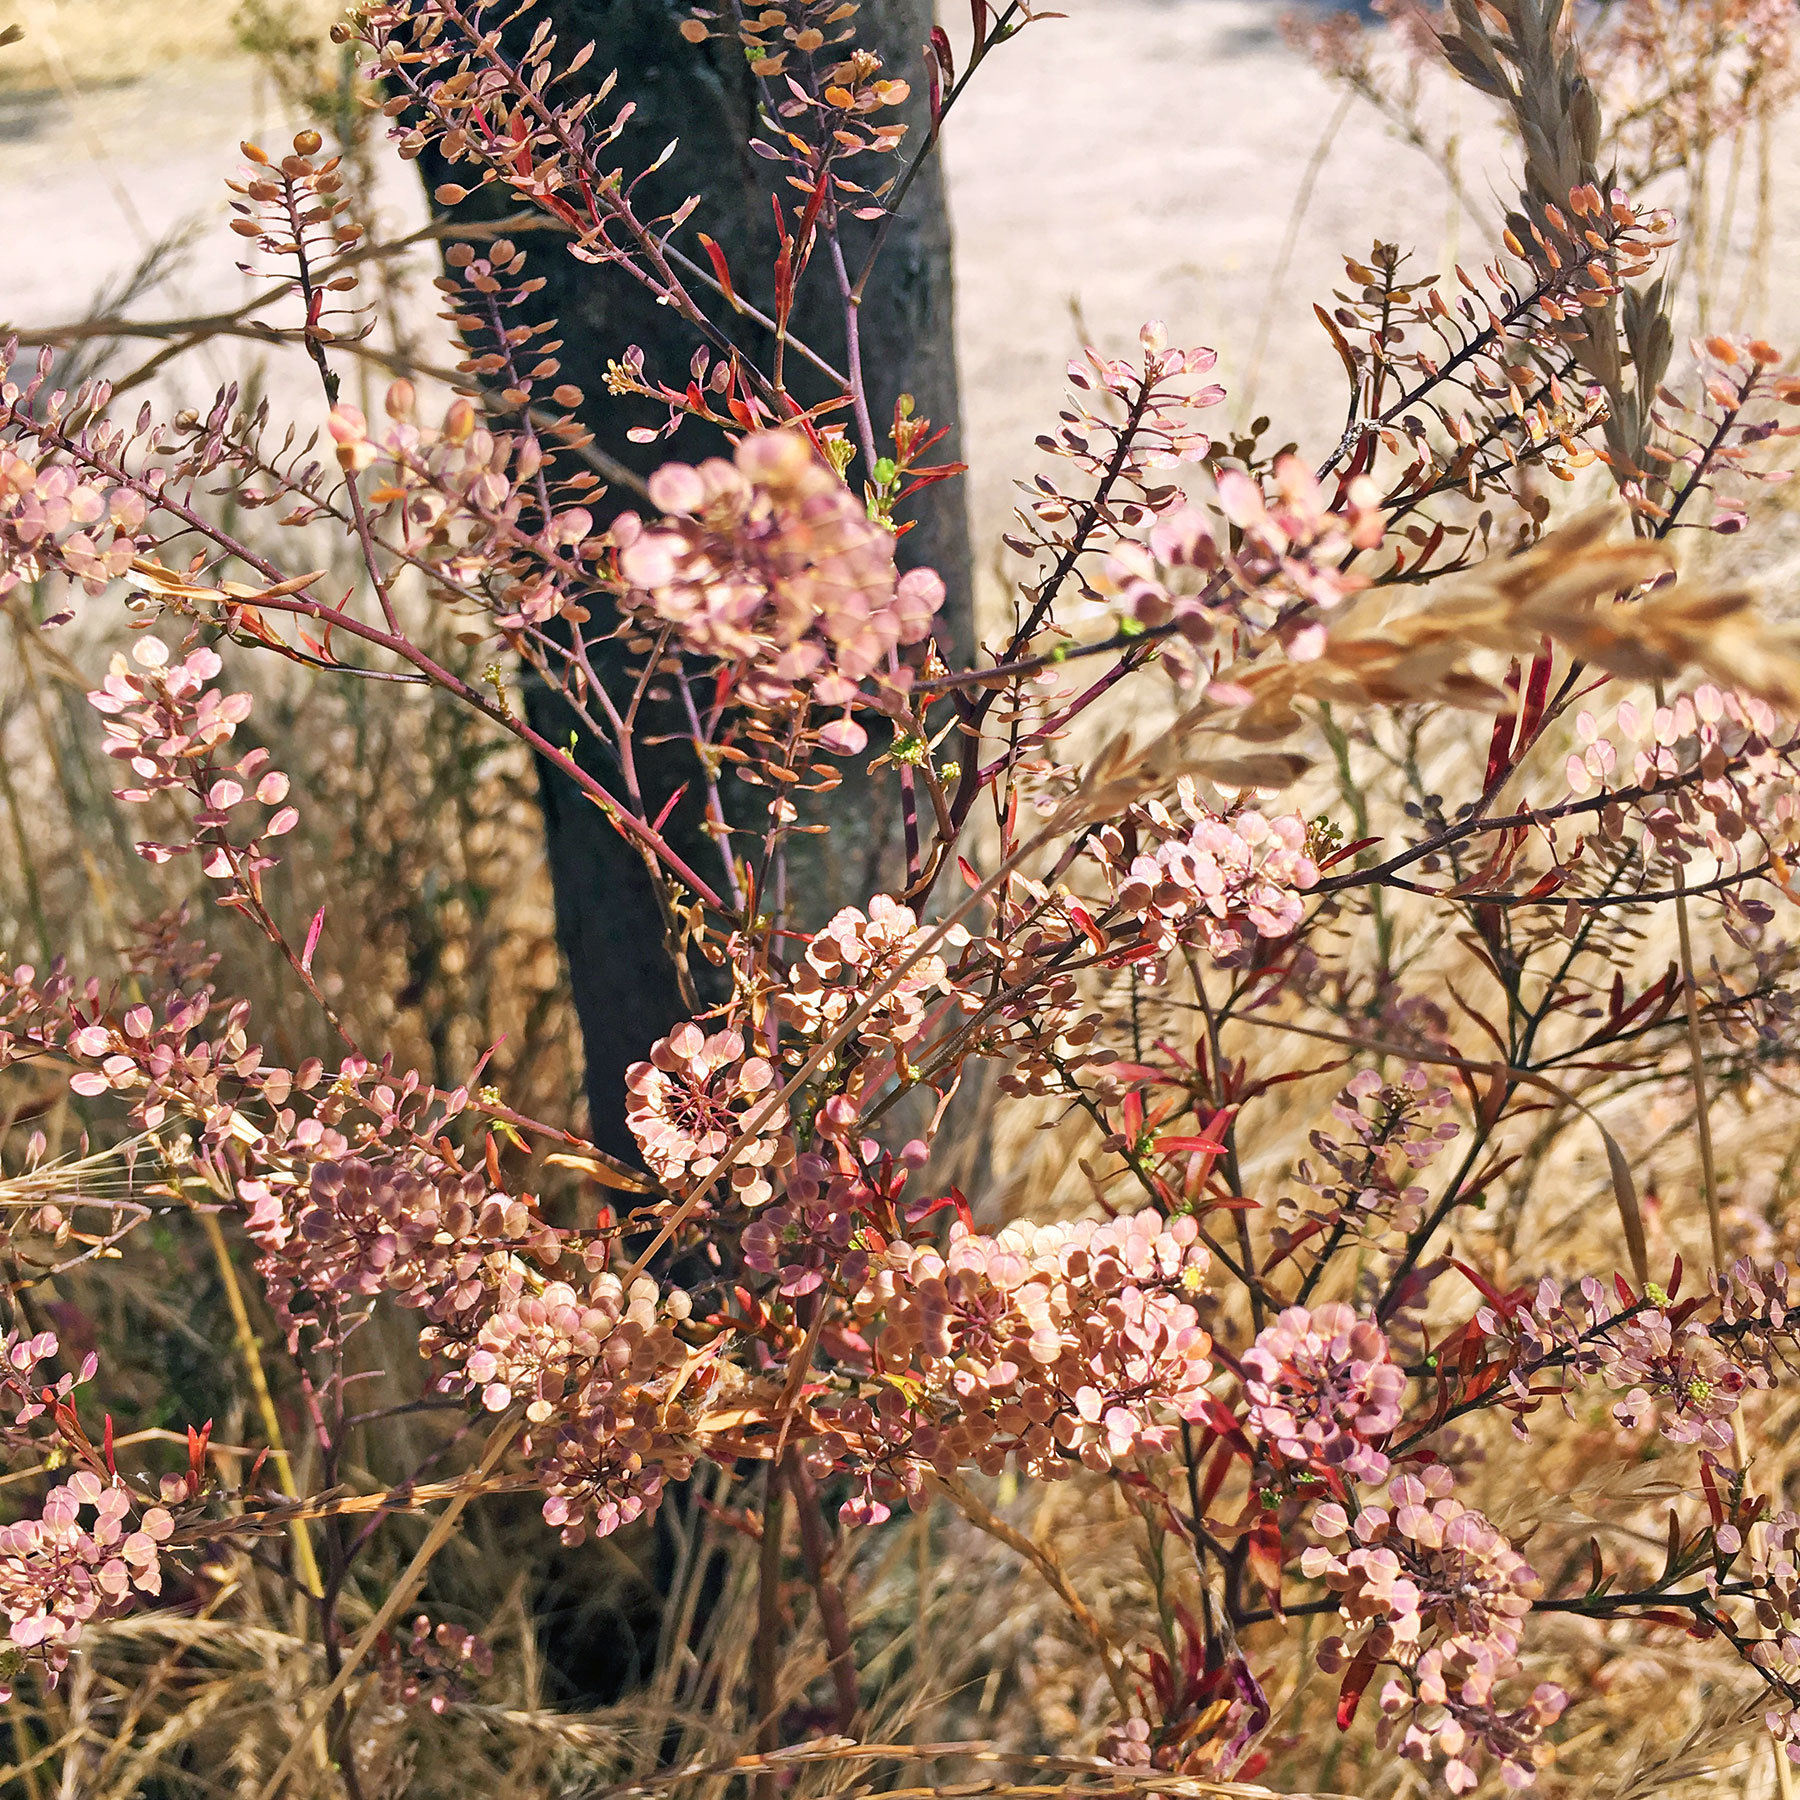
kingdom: Plantae
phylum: Tracheophyta
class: Magnoliopsida
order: Brassicales
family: Brassicaceae
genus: Lepidium
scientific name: Lepidium virginicum
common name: Least pepperwort
